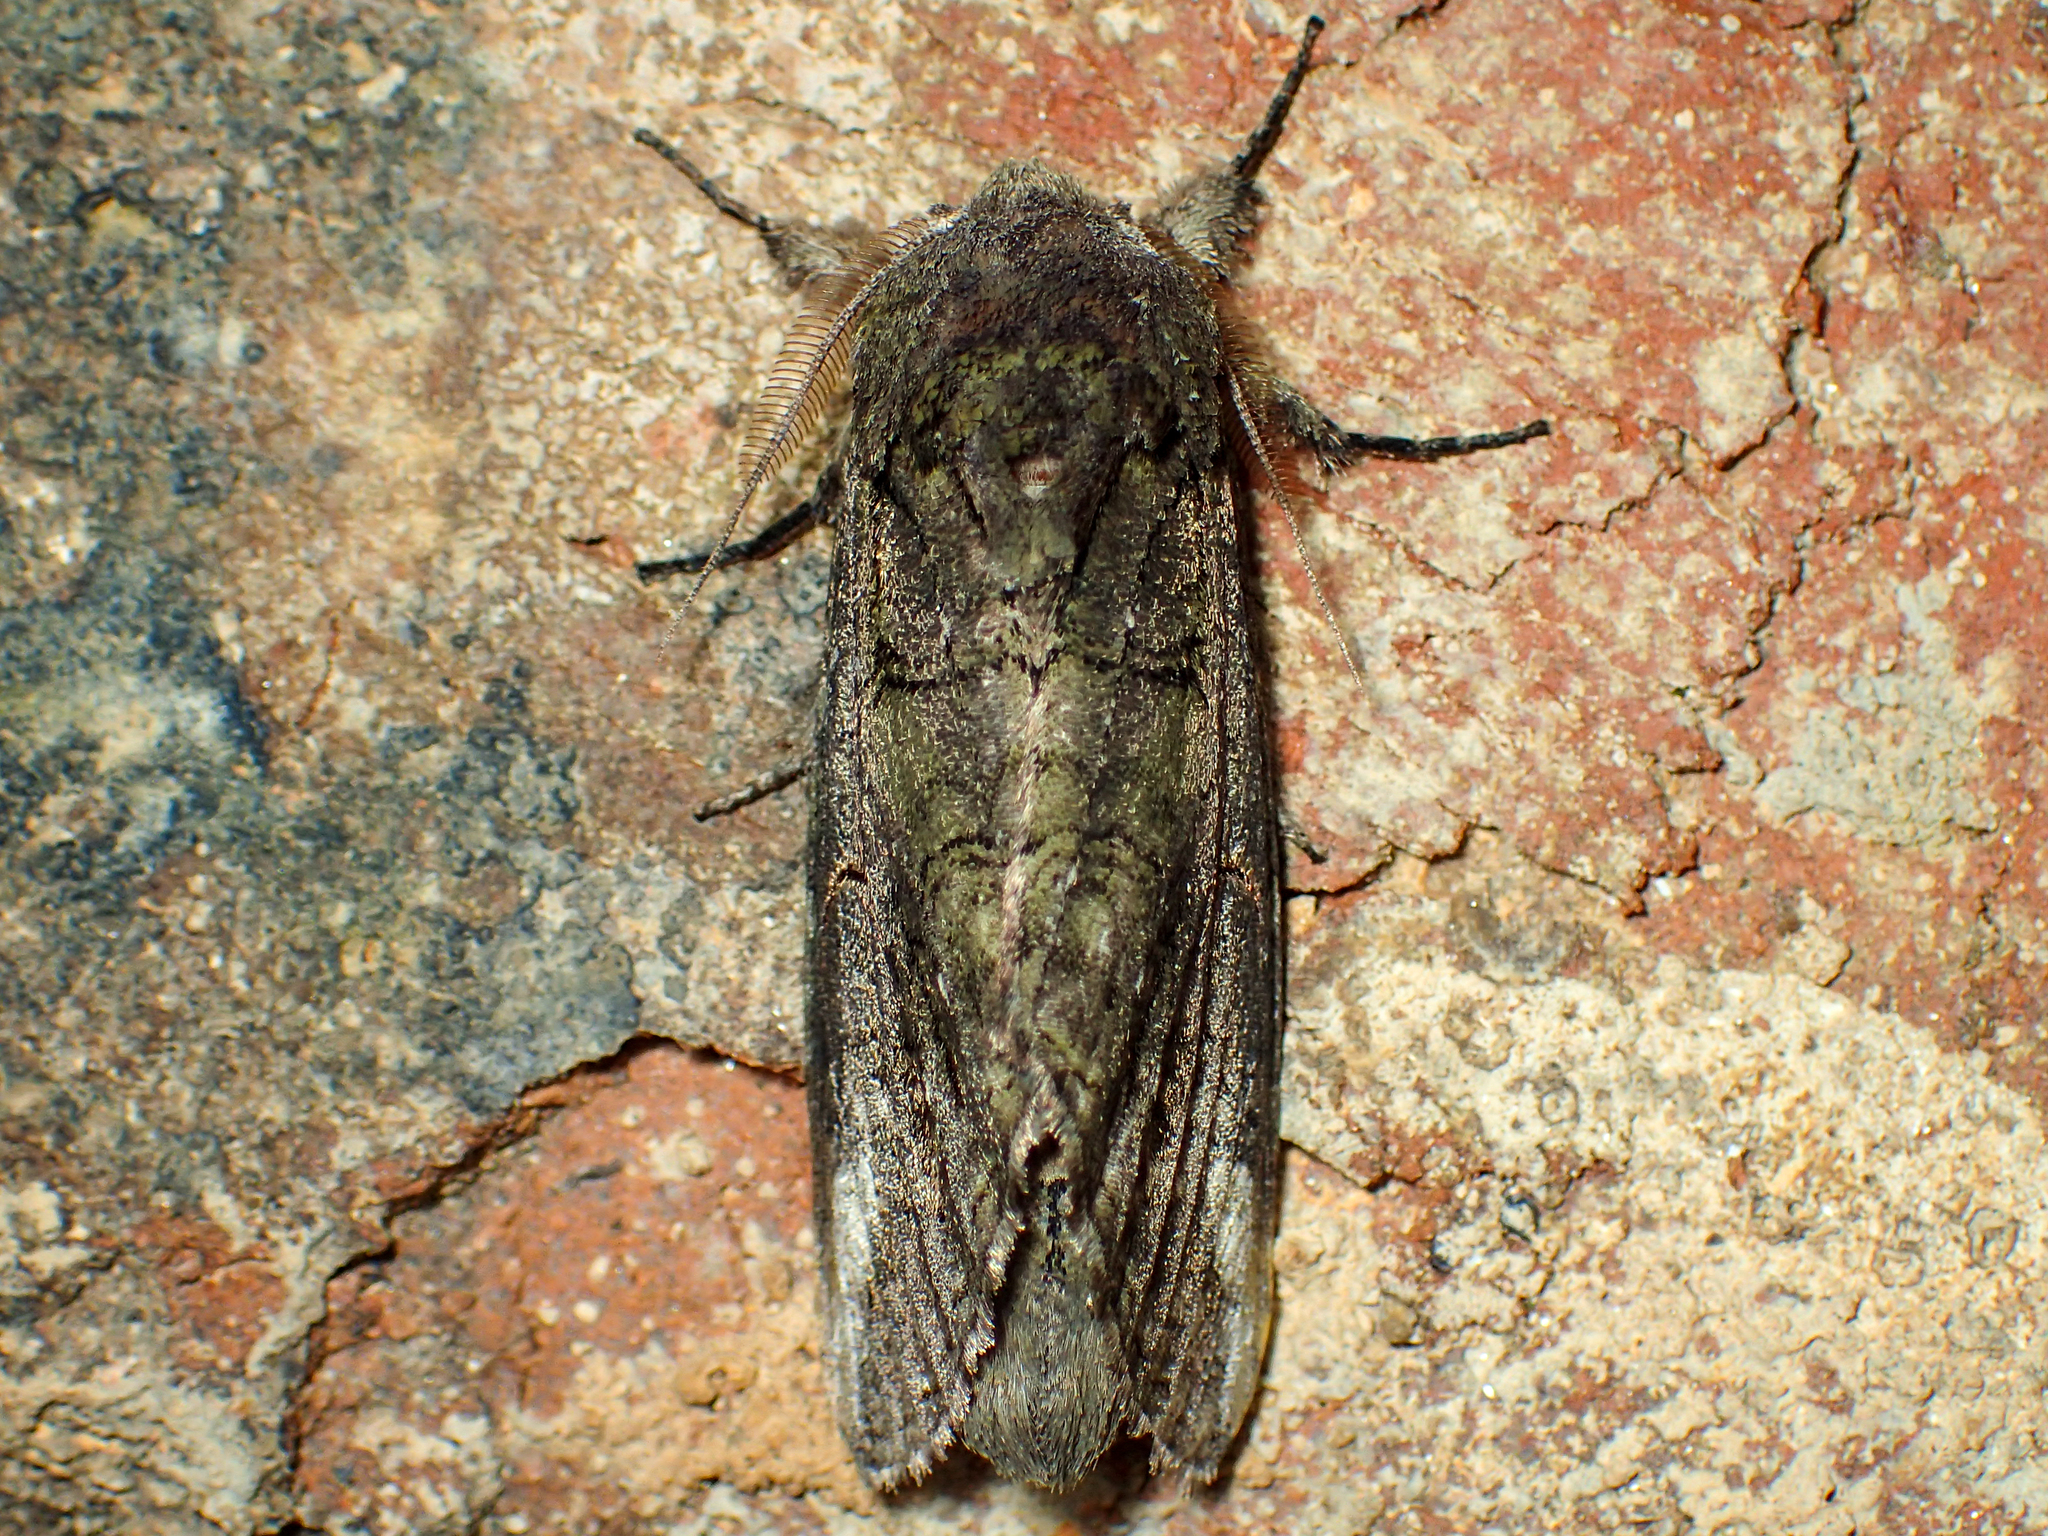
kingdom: Animalia
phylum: Arthropoda
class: Insecta
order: Lepidoptera
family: Notodontidae
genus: Heterocampa
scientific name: Heterocampa obliqua
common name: Oblique heterocampa
